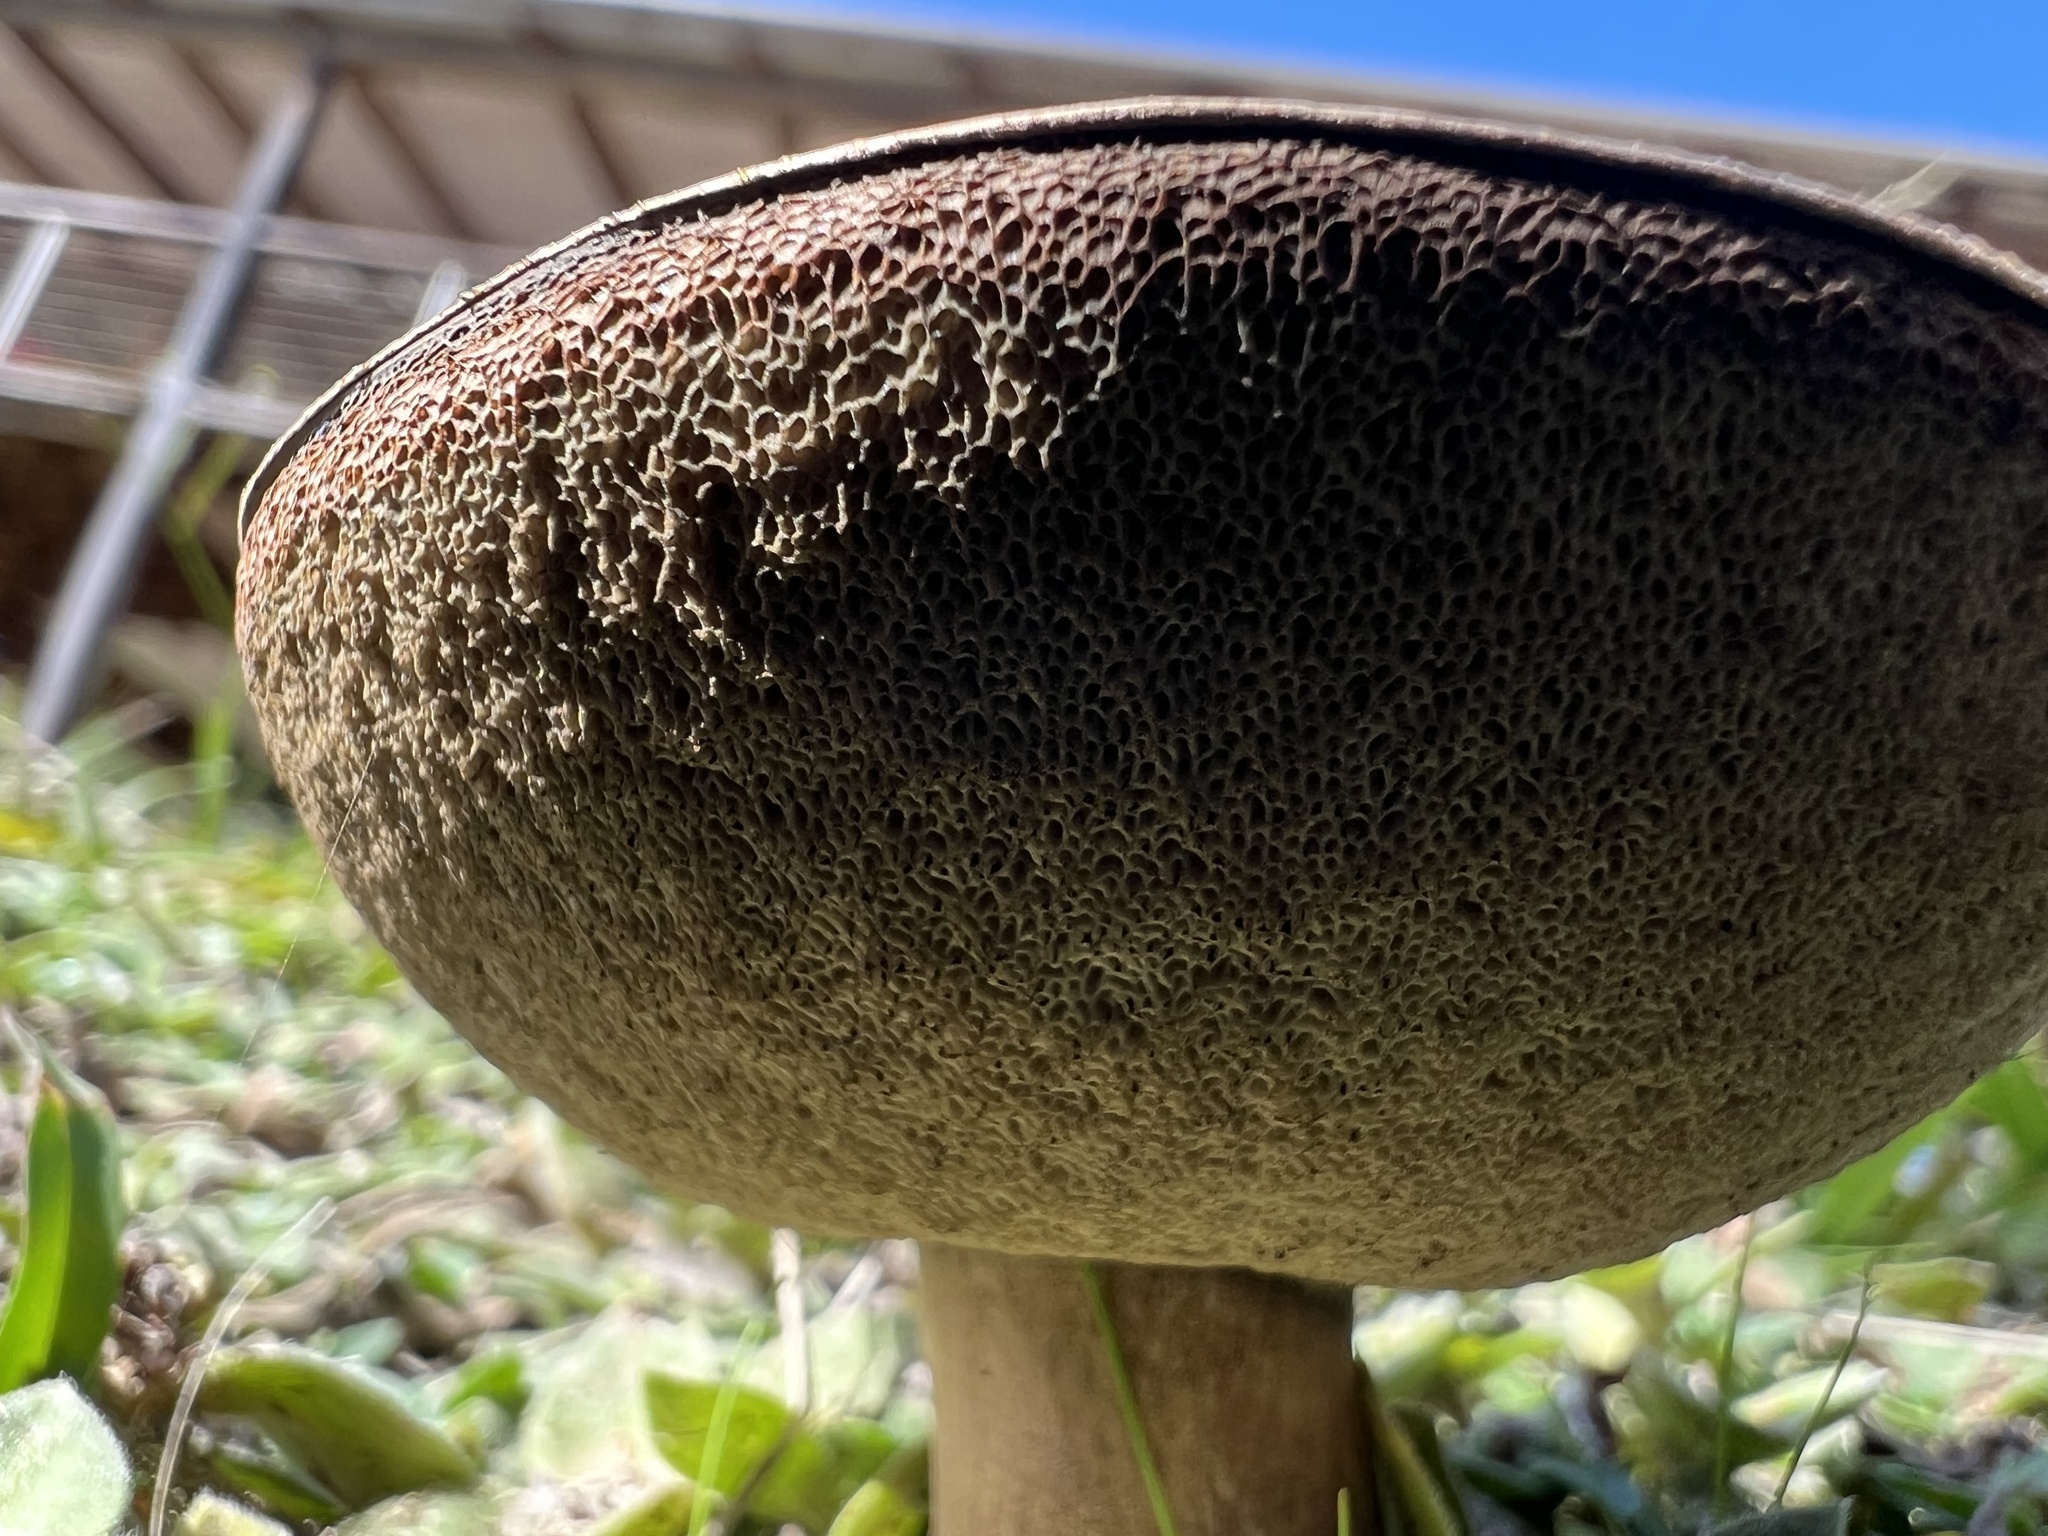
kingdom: Fungi
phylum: Basidiomycota
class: Agaricomycetes
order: Boletales
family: Boletaceae
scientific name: Boletaceae
